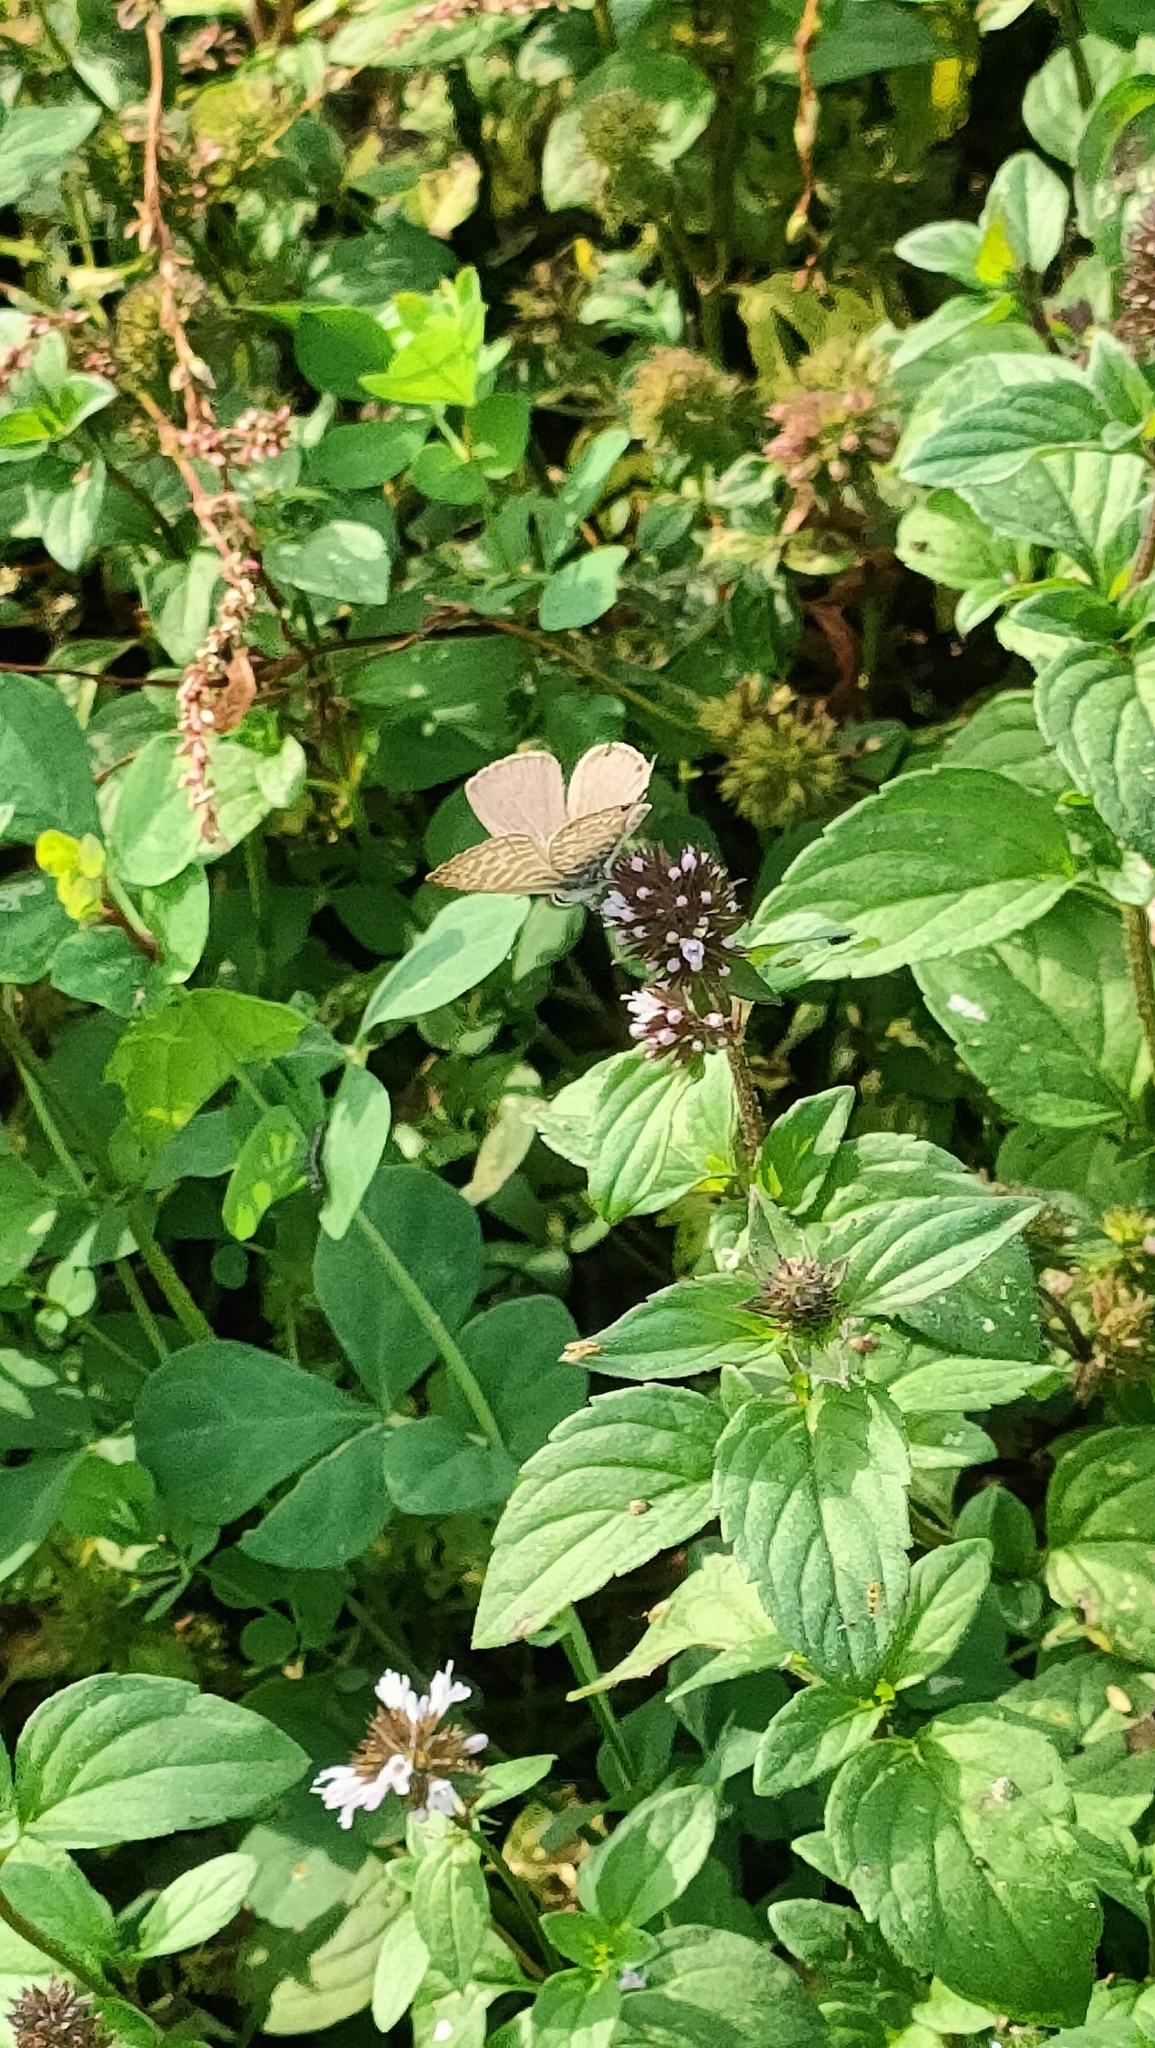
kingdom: Animalia
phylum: Arthropoda
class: Insecta
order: Lepidoptera
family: Lycaenidae
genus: Leptotes
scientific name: Leptotes pirithous
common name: Lang's short-tailed blue
